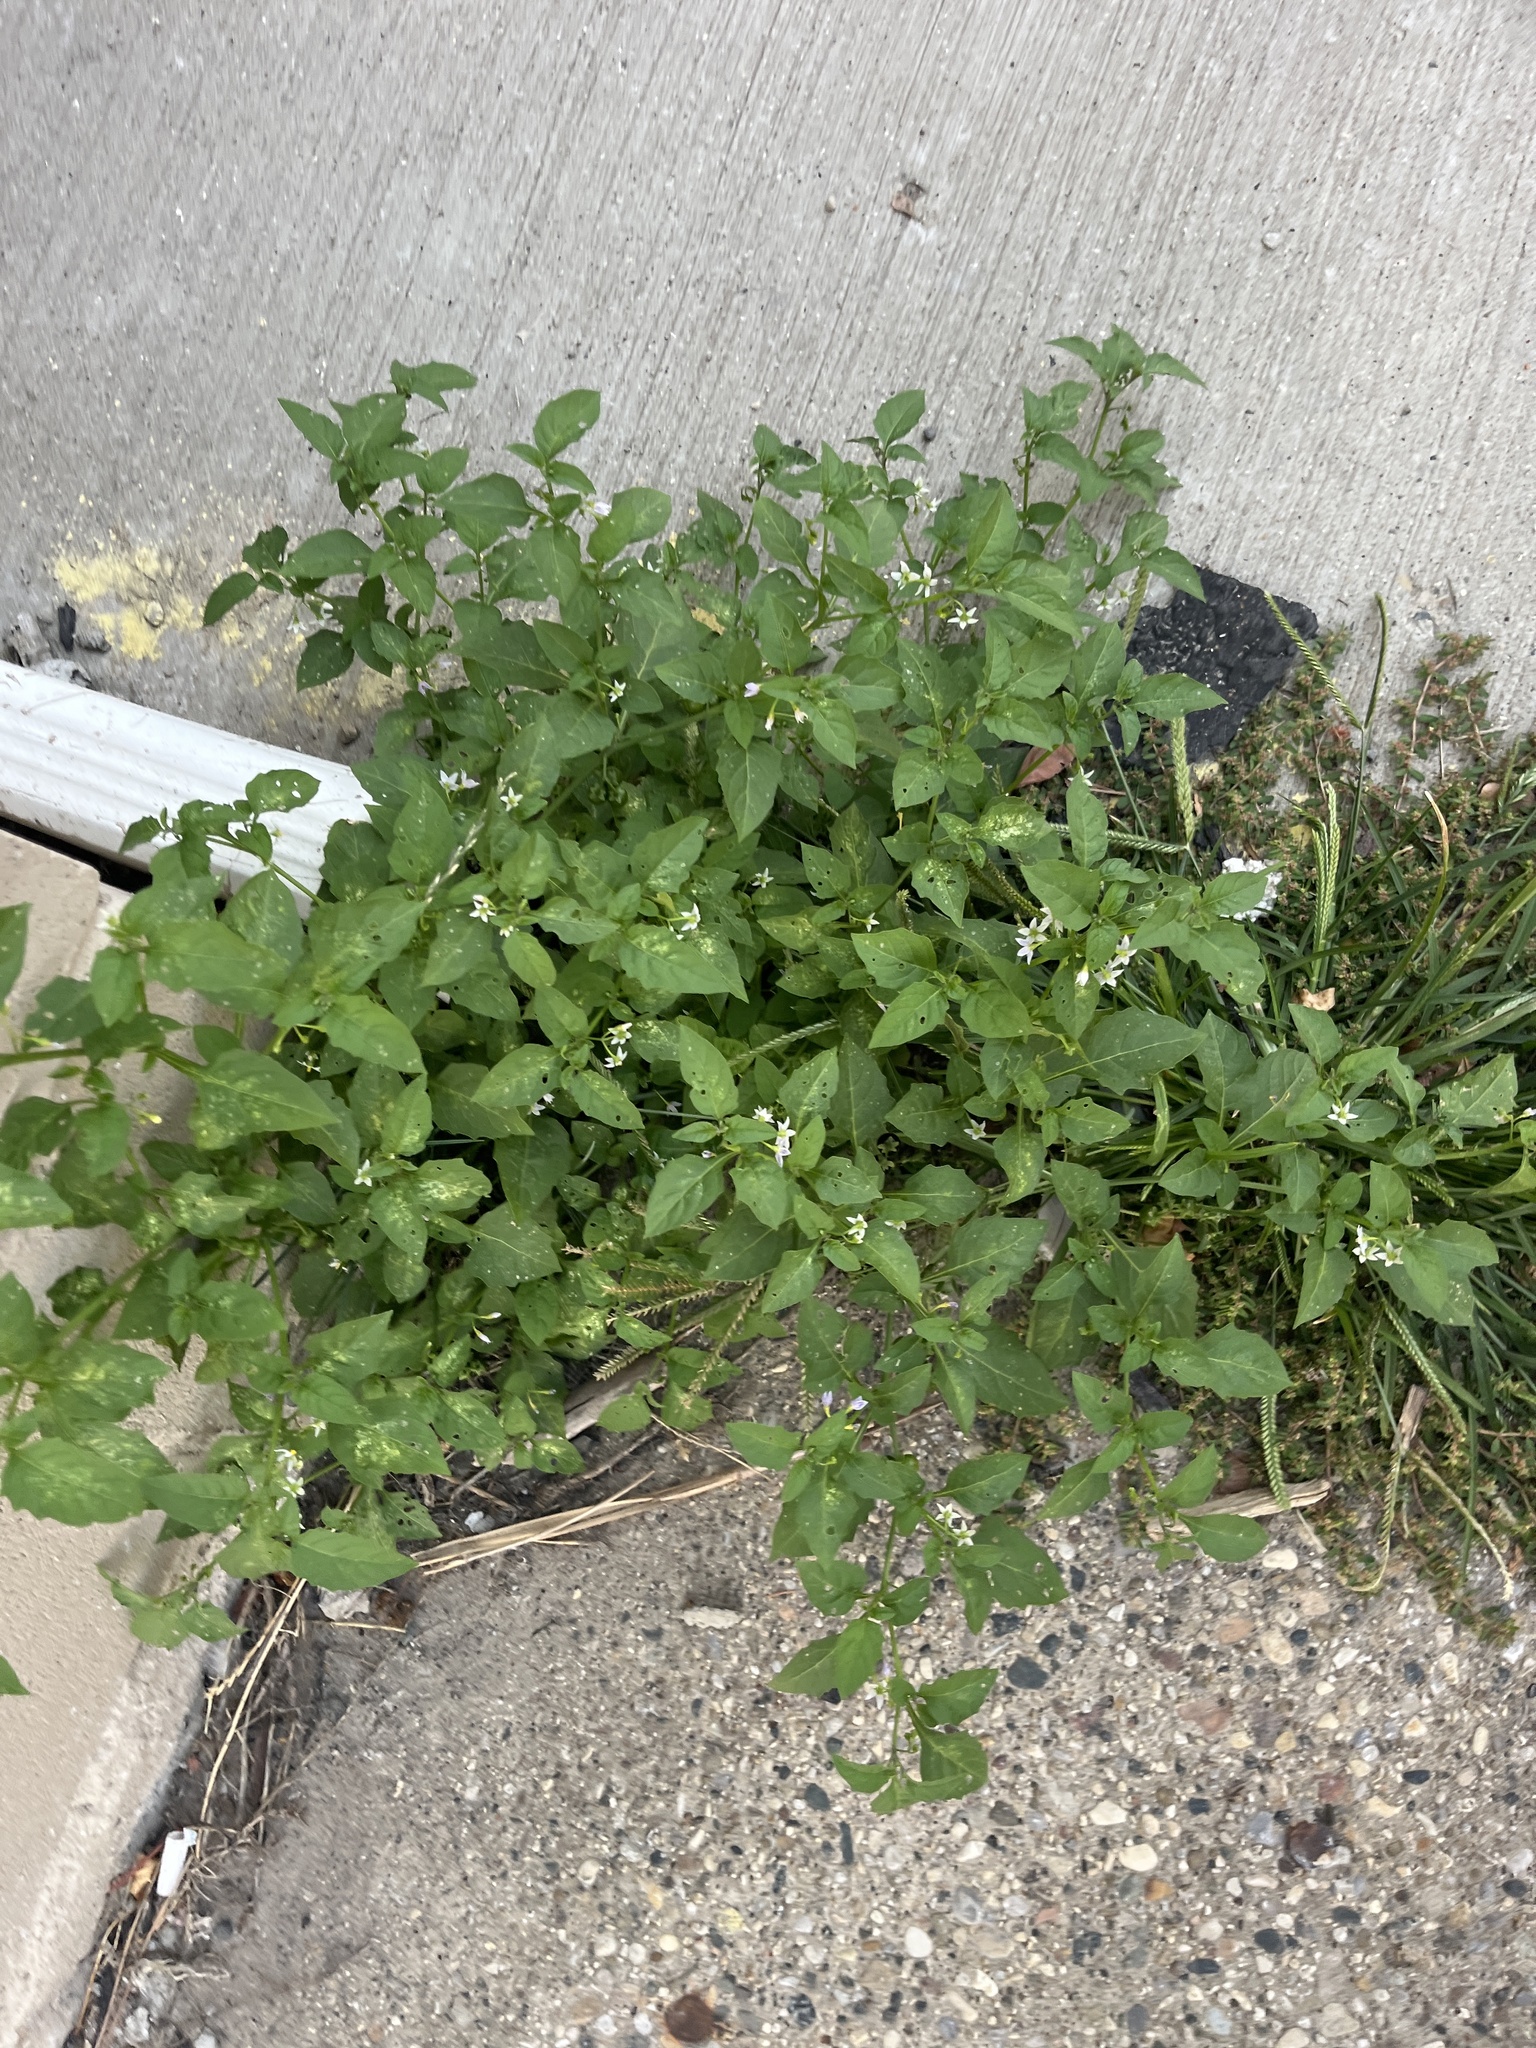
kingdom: Plantae
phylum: Tracheophyta
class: Magnoliopsida
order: Solanales
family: Solanaceae
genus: Solanum
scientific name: Solanum emulans
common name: Eastern black nightshade
